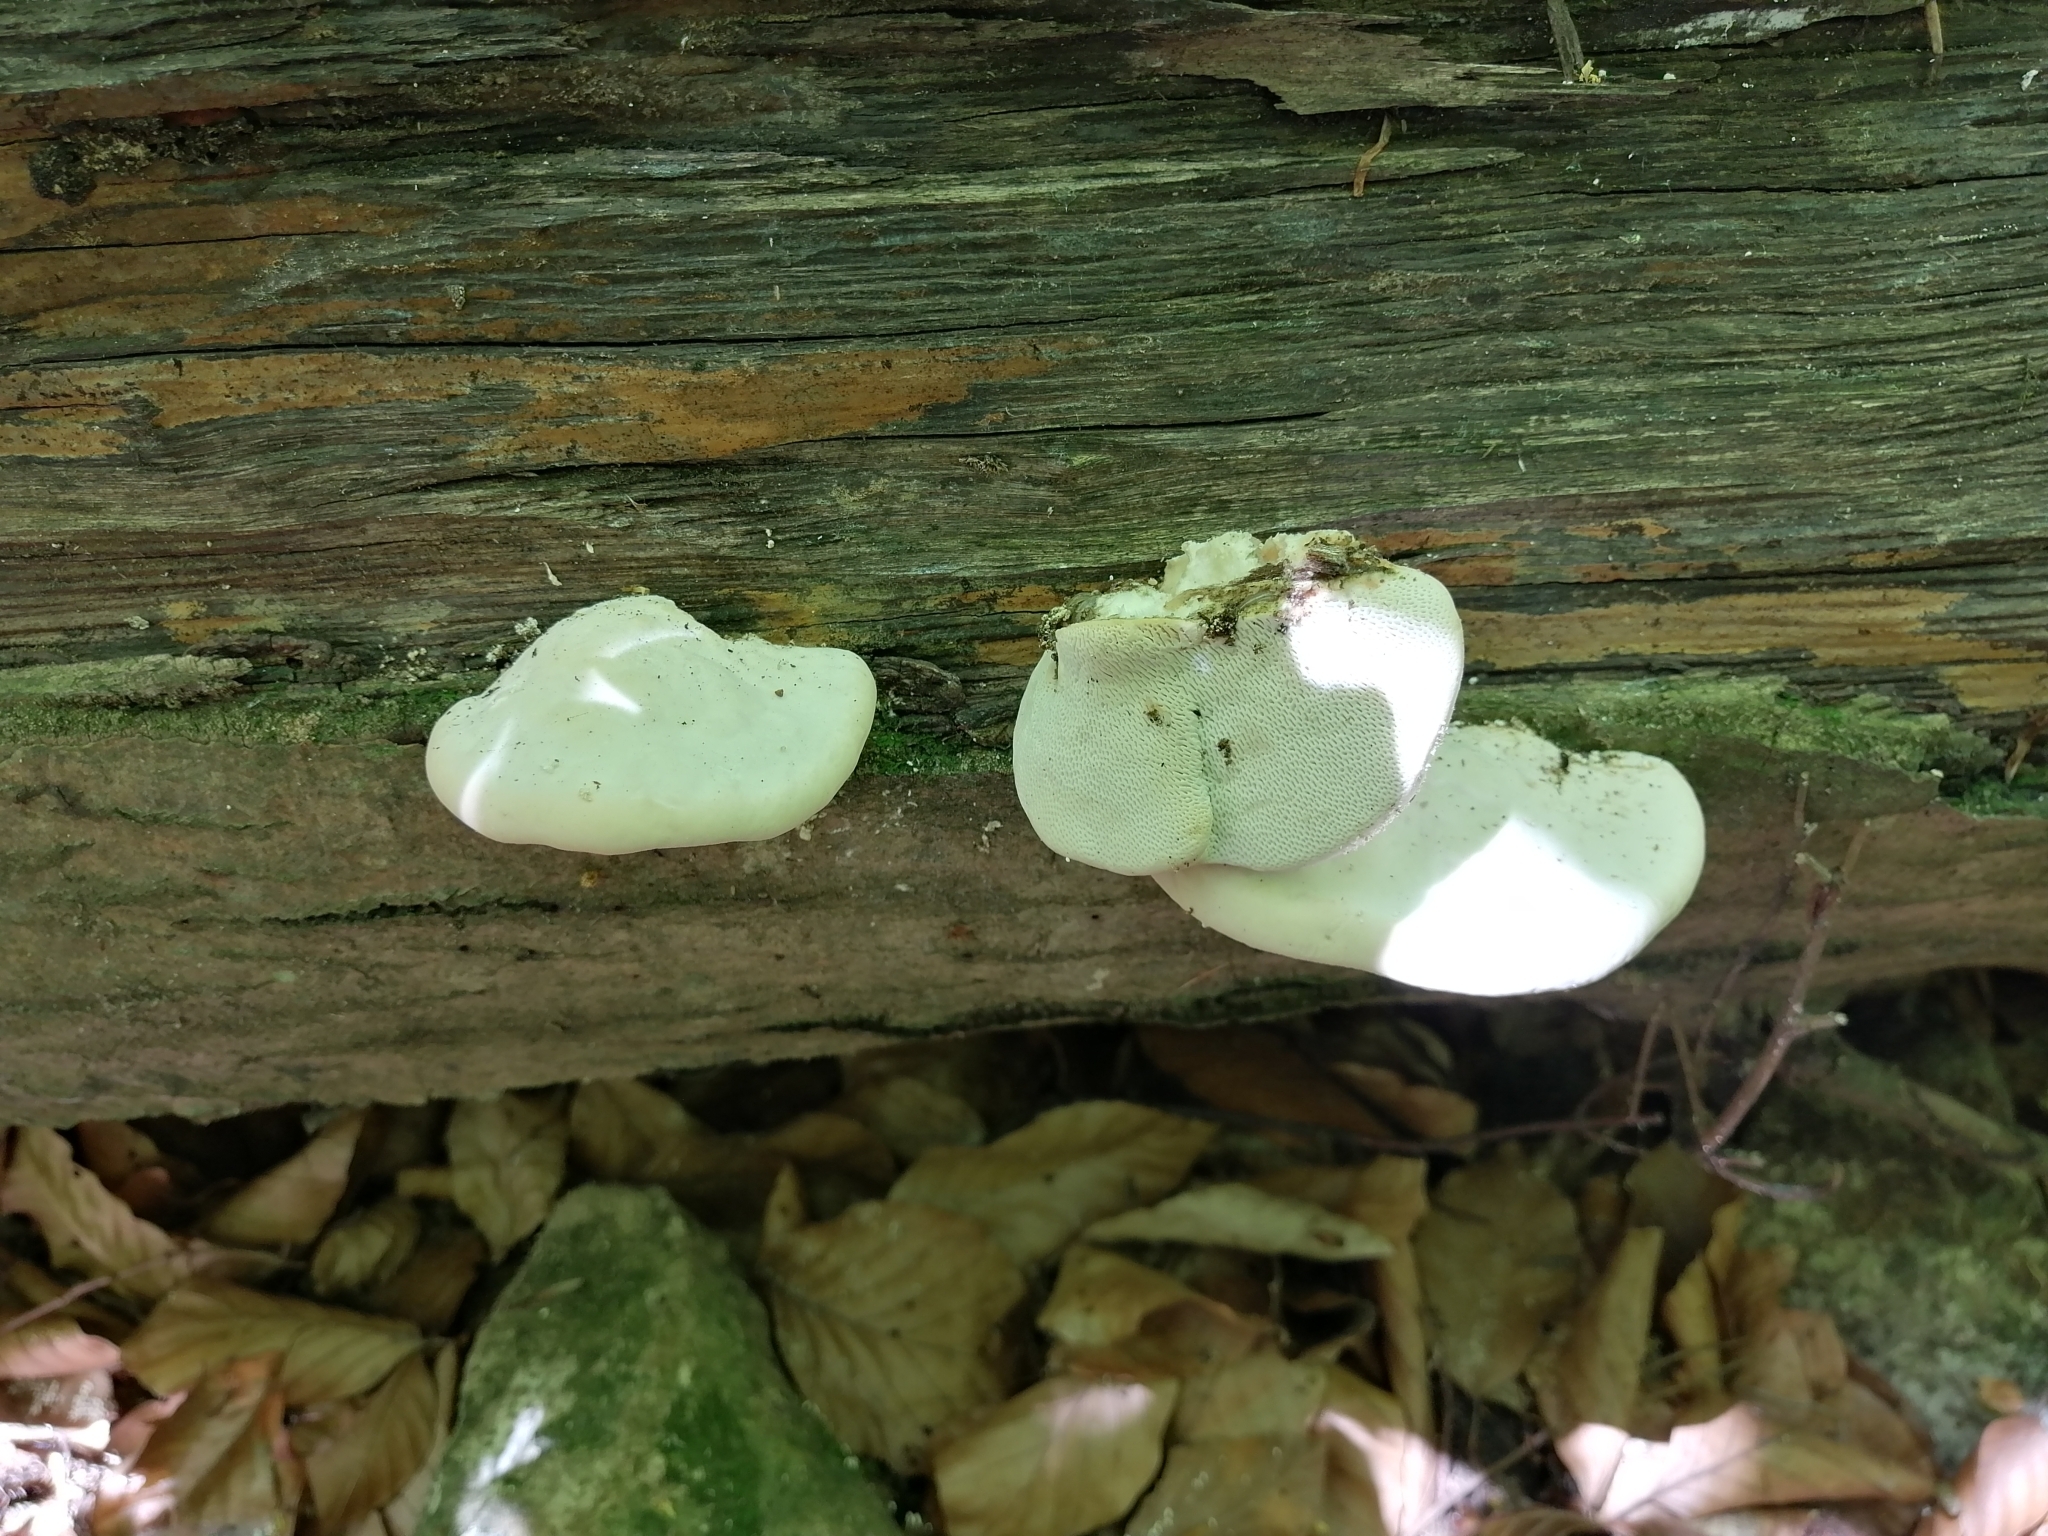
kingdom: Fungi
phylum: Basidiomycota
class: Agaricomycetes
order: Polyporales
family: Polyporaceae
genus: Trametes
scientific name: Trametes gibbosa
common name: Lumpy bracket
